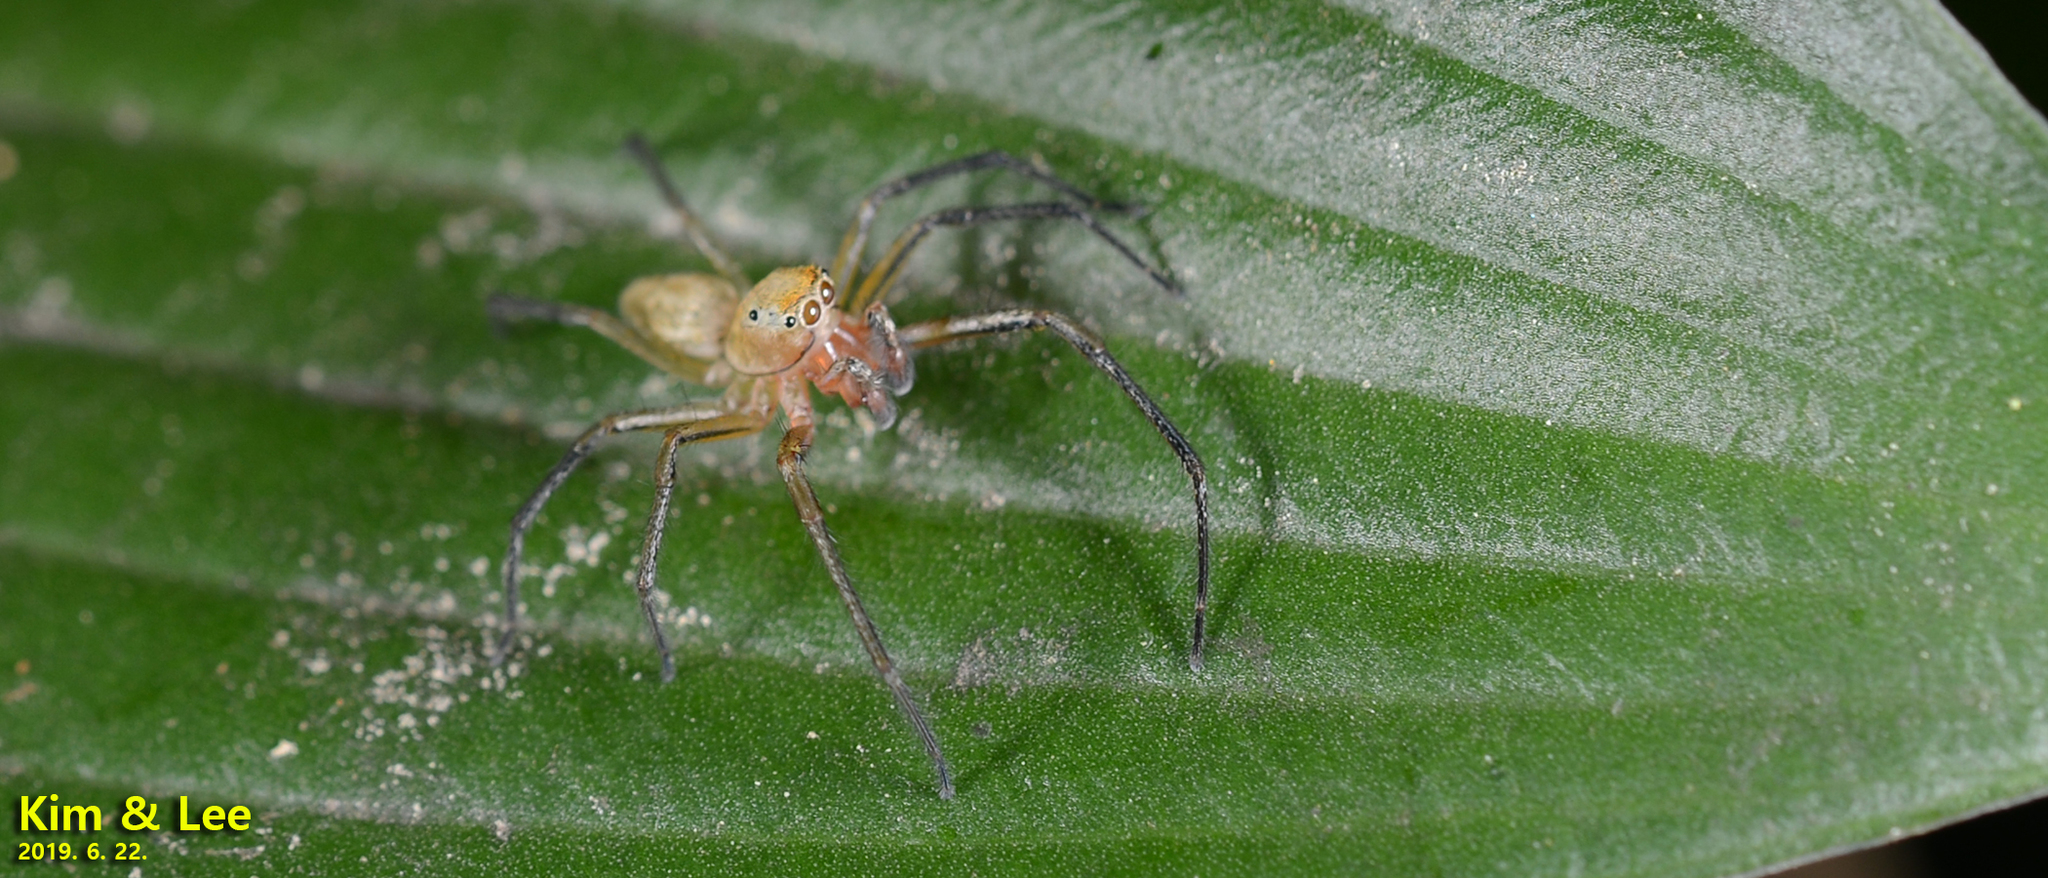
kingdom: Animalia
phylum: Arthropoda
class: Arachnida
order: Araneae
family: Salticidae
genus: Phintella
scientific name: Phintella abnormis
